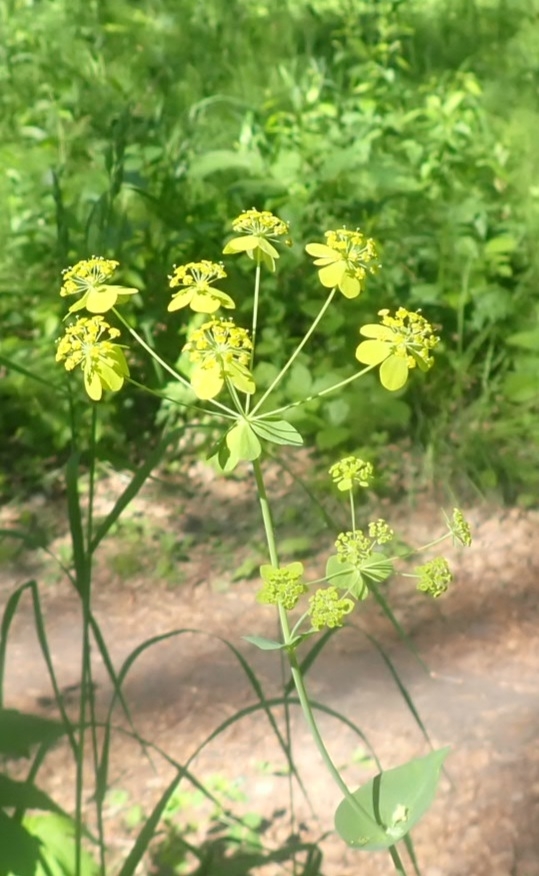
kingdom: Plantae
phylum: Tracheophyta
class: Magnoliopsida
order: Apiales
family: Apiaceae
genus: Bupleurum
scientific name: Bupleurum aureum
